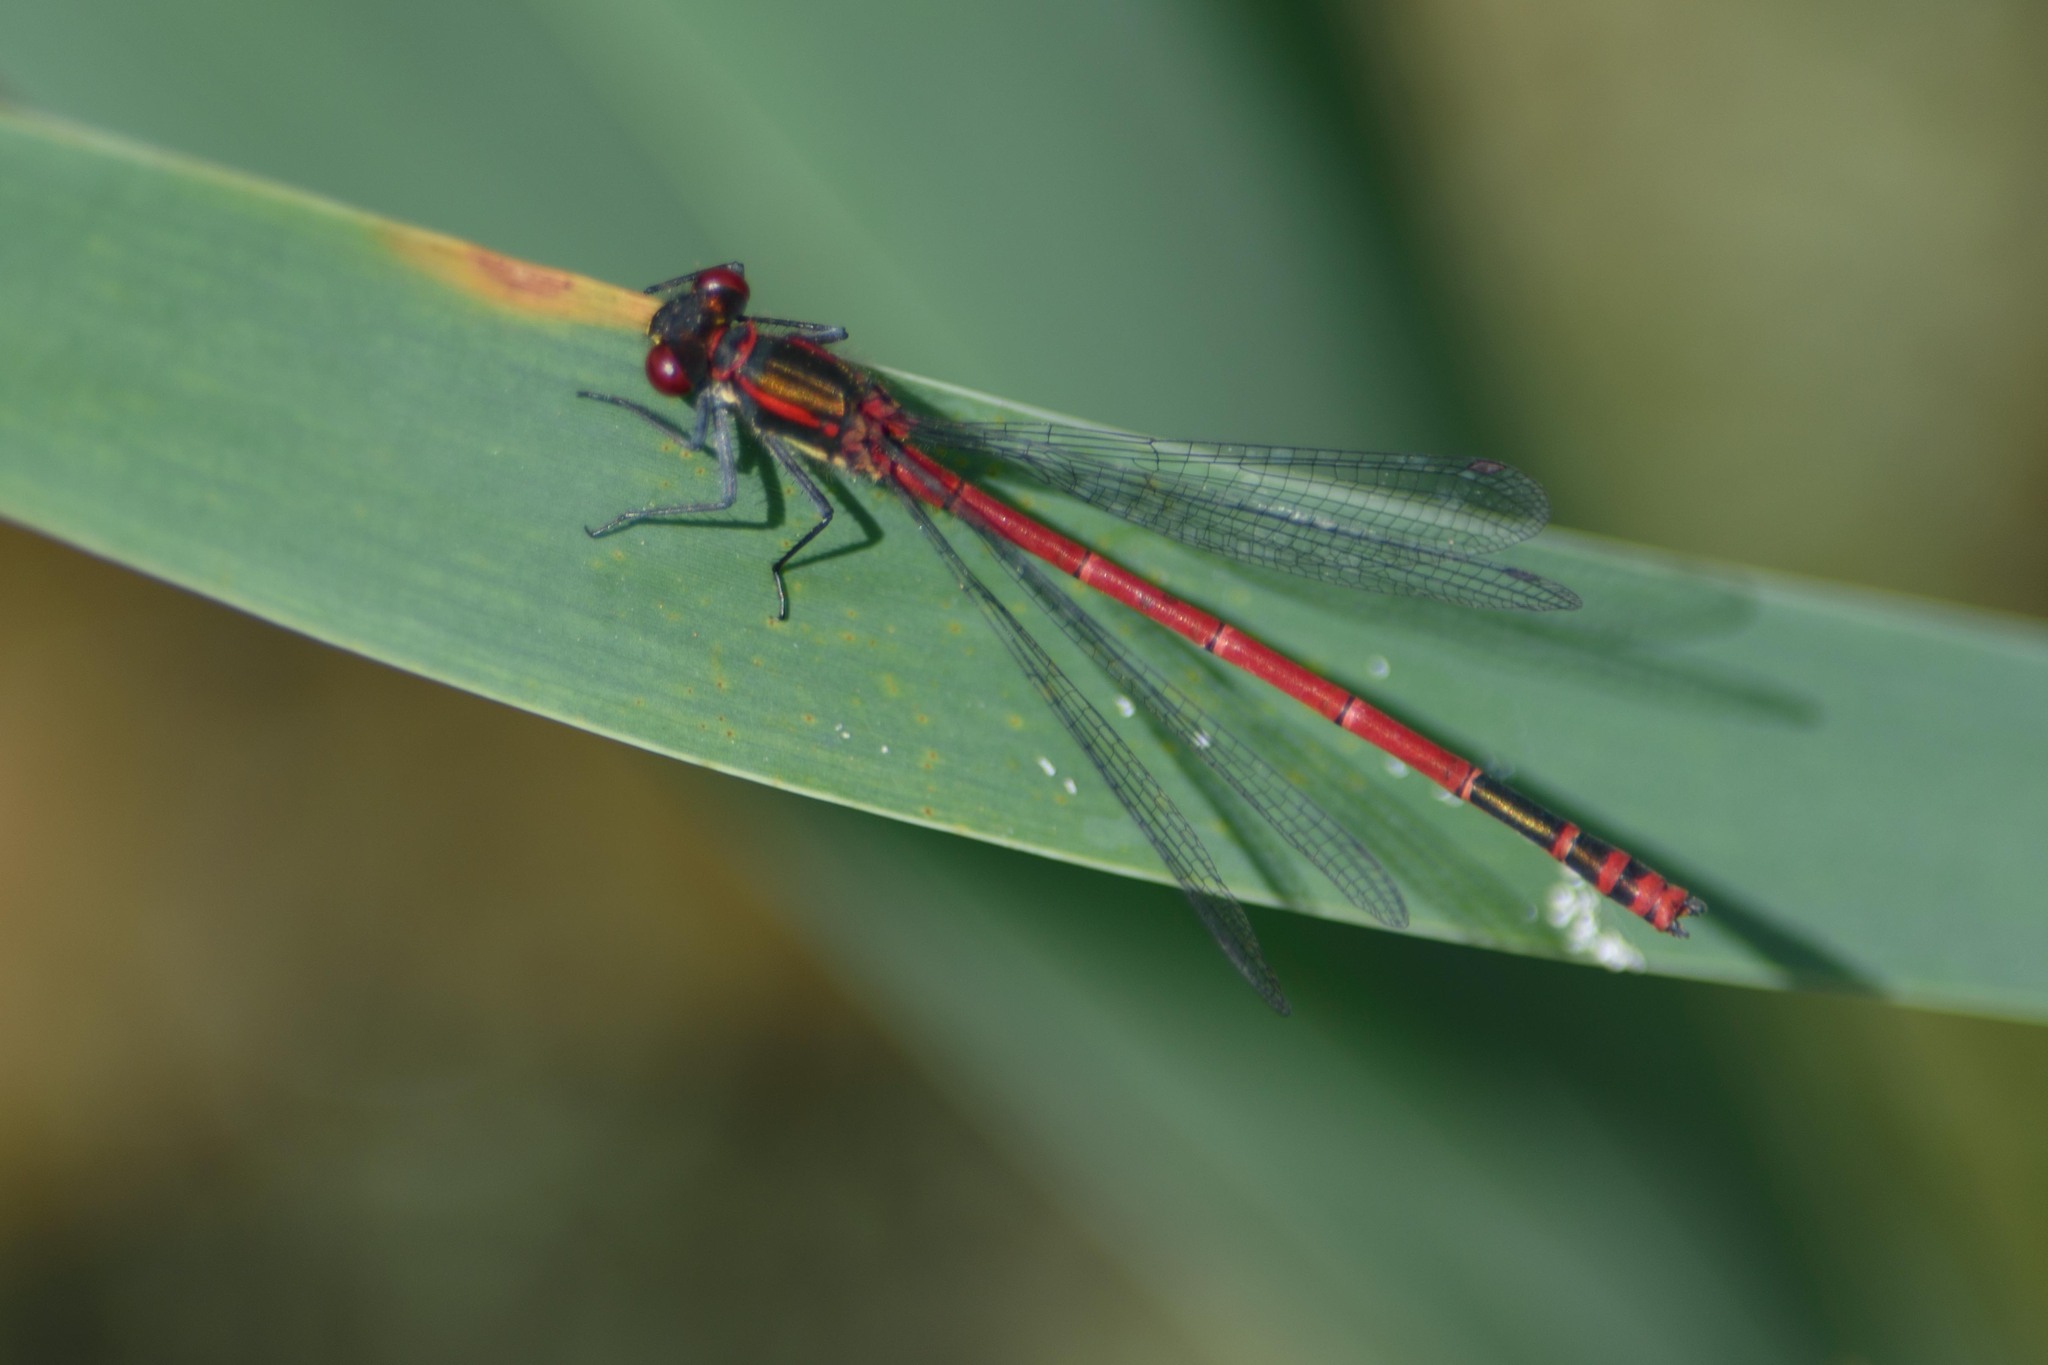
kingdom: Animalia
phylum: Arthropoda
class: Insecta
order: Odonata
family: Coenagrionidae
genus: Pyrrhosoma
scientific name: Pyrrhosoma nymphula
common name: Large red damsel
